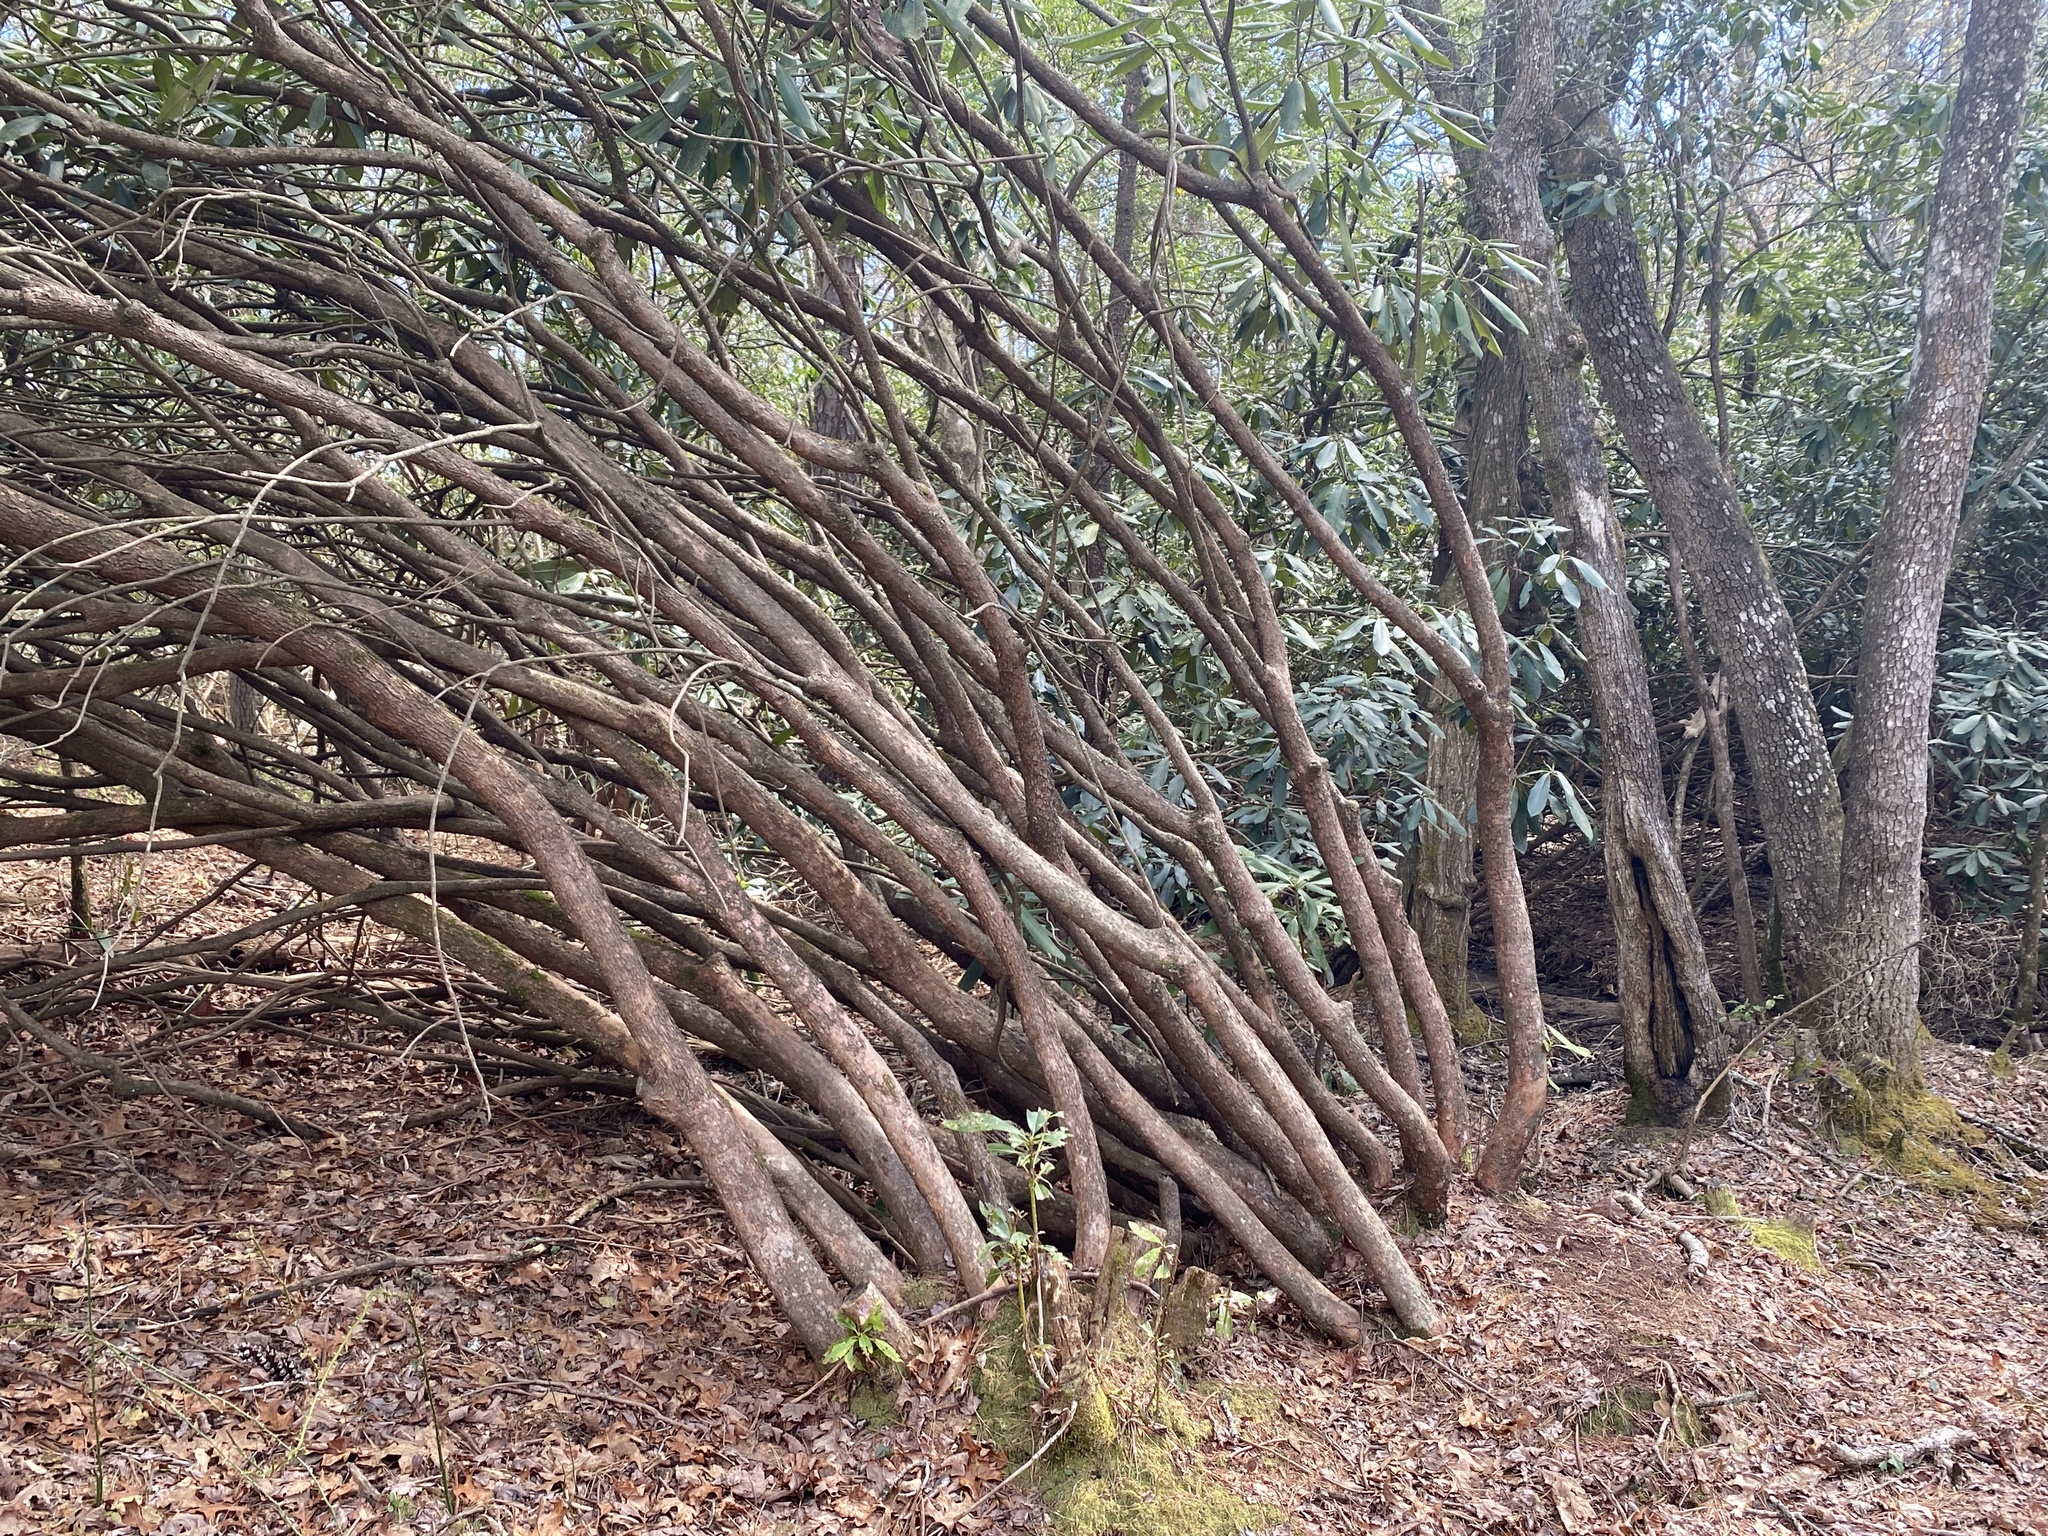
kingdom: Plantae
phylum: Tracheophyta
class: Magnoliopsida
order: Ericales
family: Ericaceae
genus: Rhododendron
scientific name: Rhododendron maximum
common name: Great rhododendron
